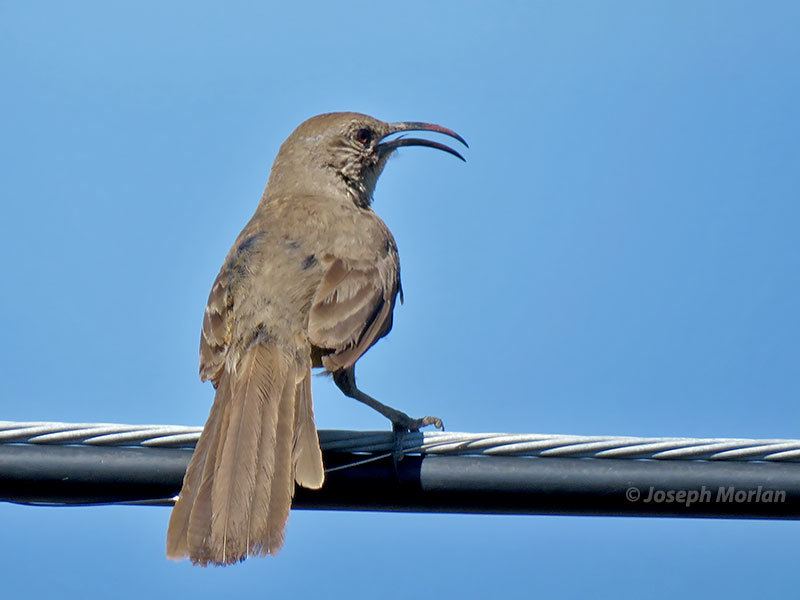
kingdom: Animalia
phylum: Chordata
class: Aves
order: Passeriformes
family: Mimidae
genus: Toxostoma
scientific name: Toxostoma redivivum
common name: California thrasher
